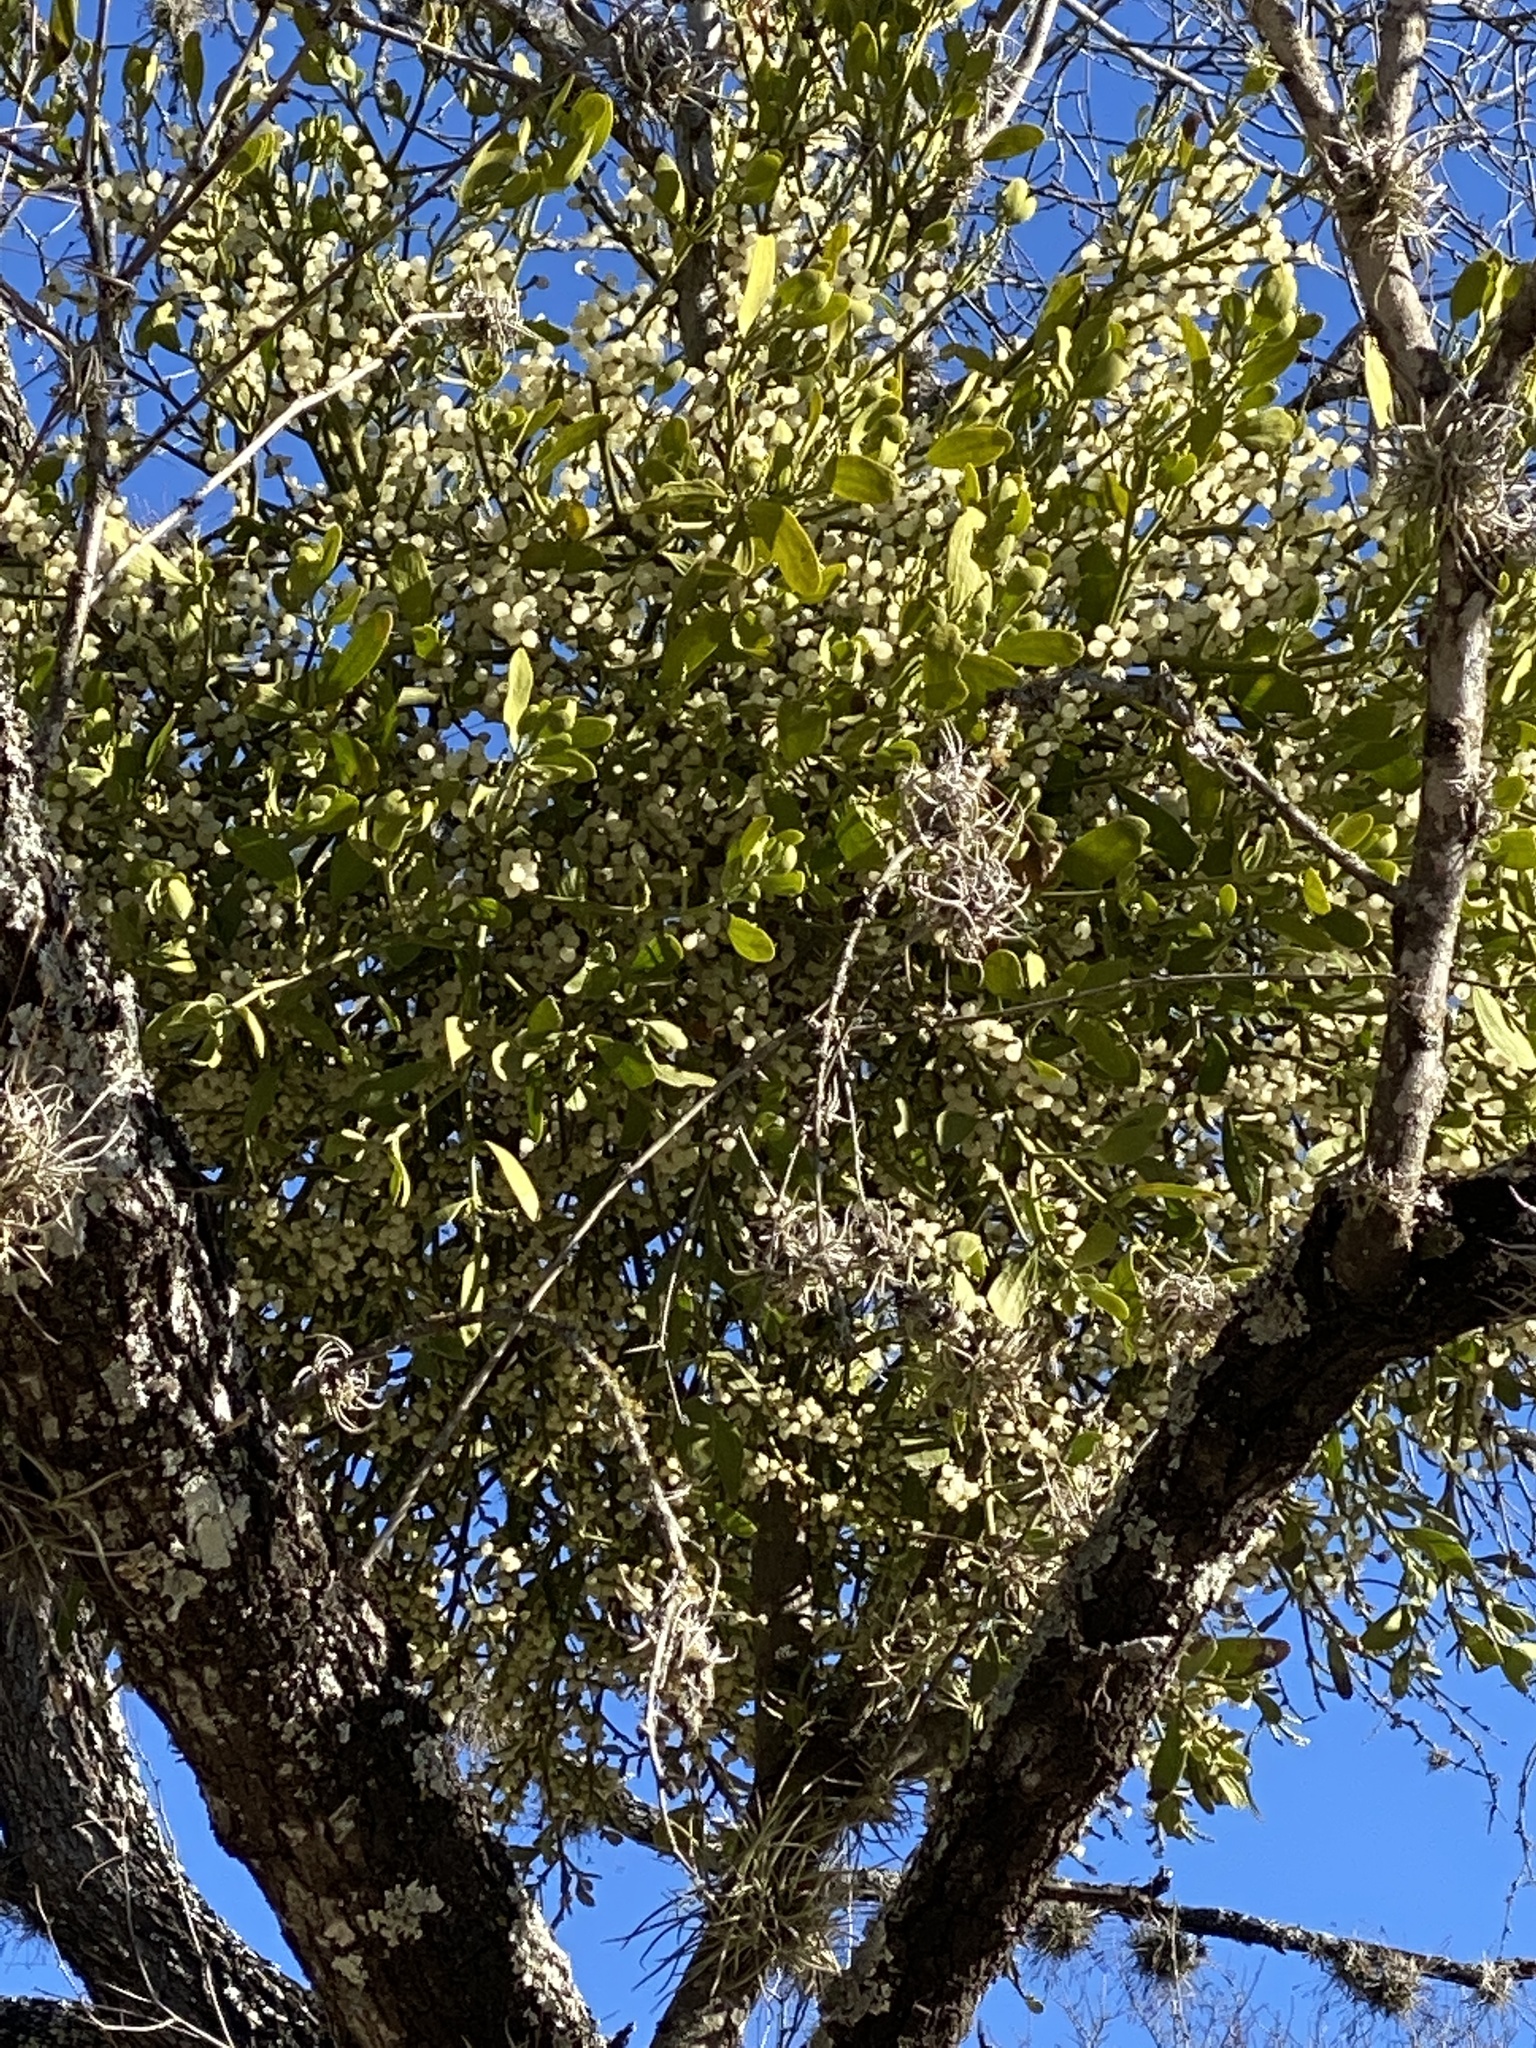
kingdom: Plantae
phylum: Tracheophyta
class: Magnoliopsida
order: Santalales
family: Viscaceae
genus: Phoradendron
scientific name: Phoradendron leucarpum
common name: Pacific mistletoe
